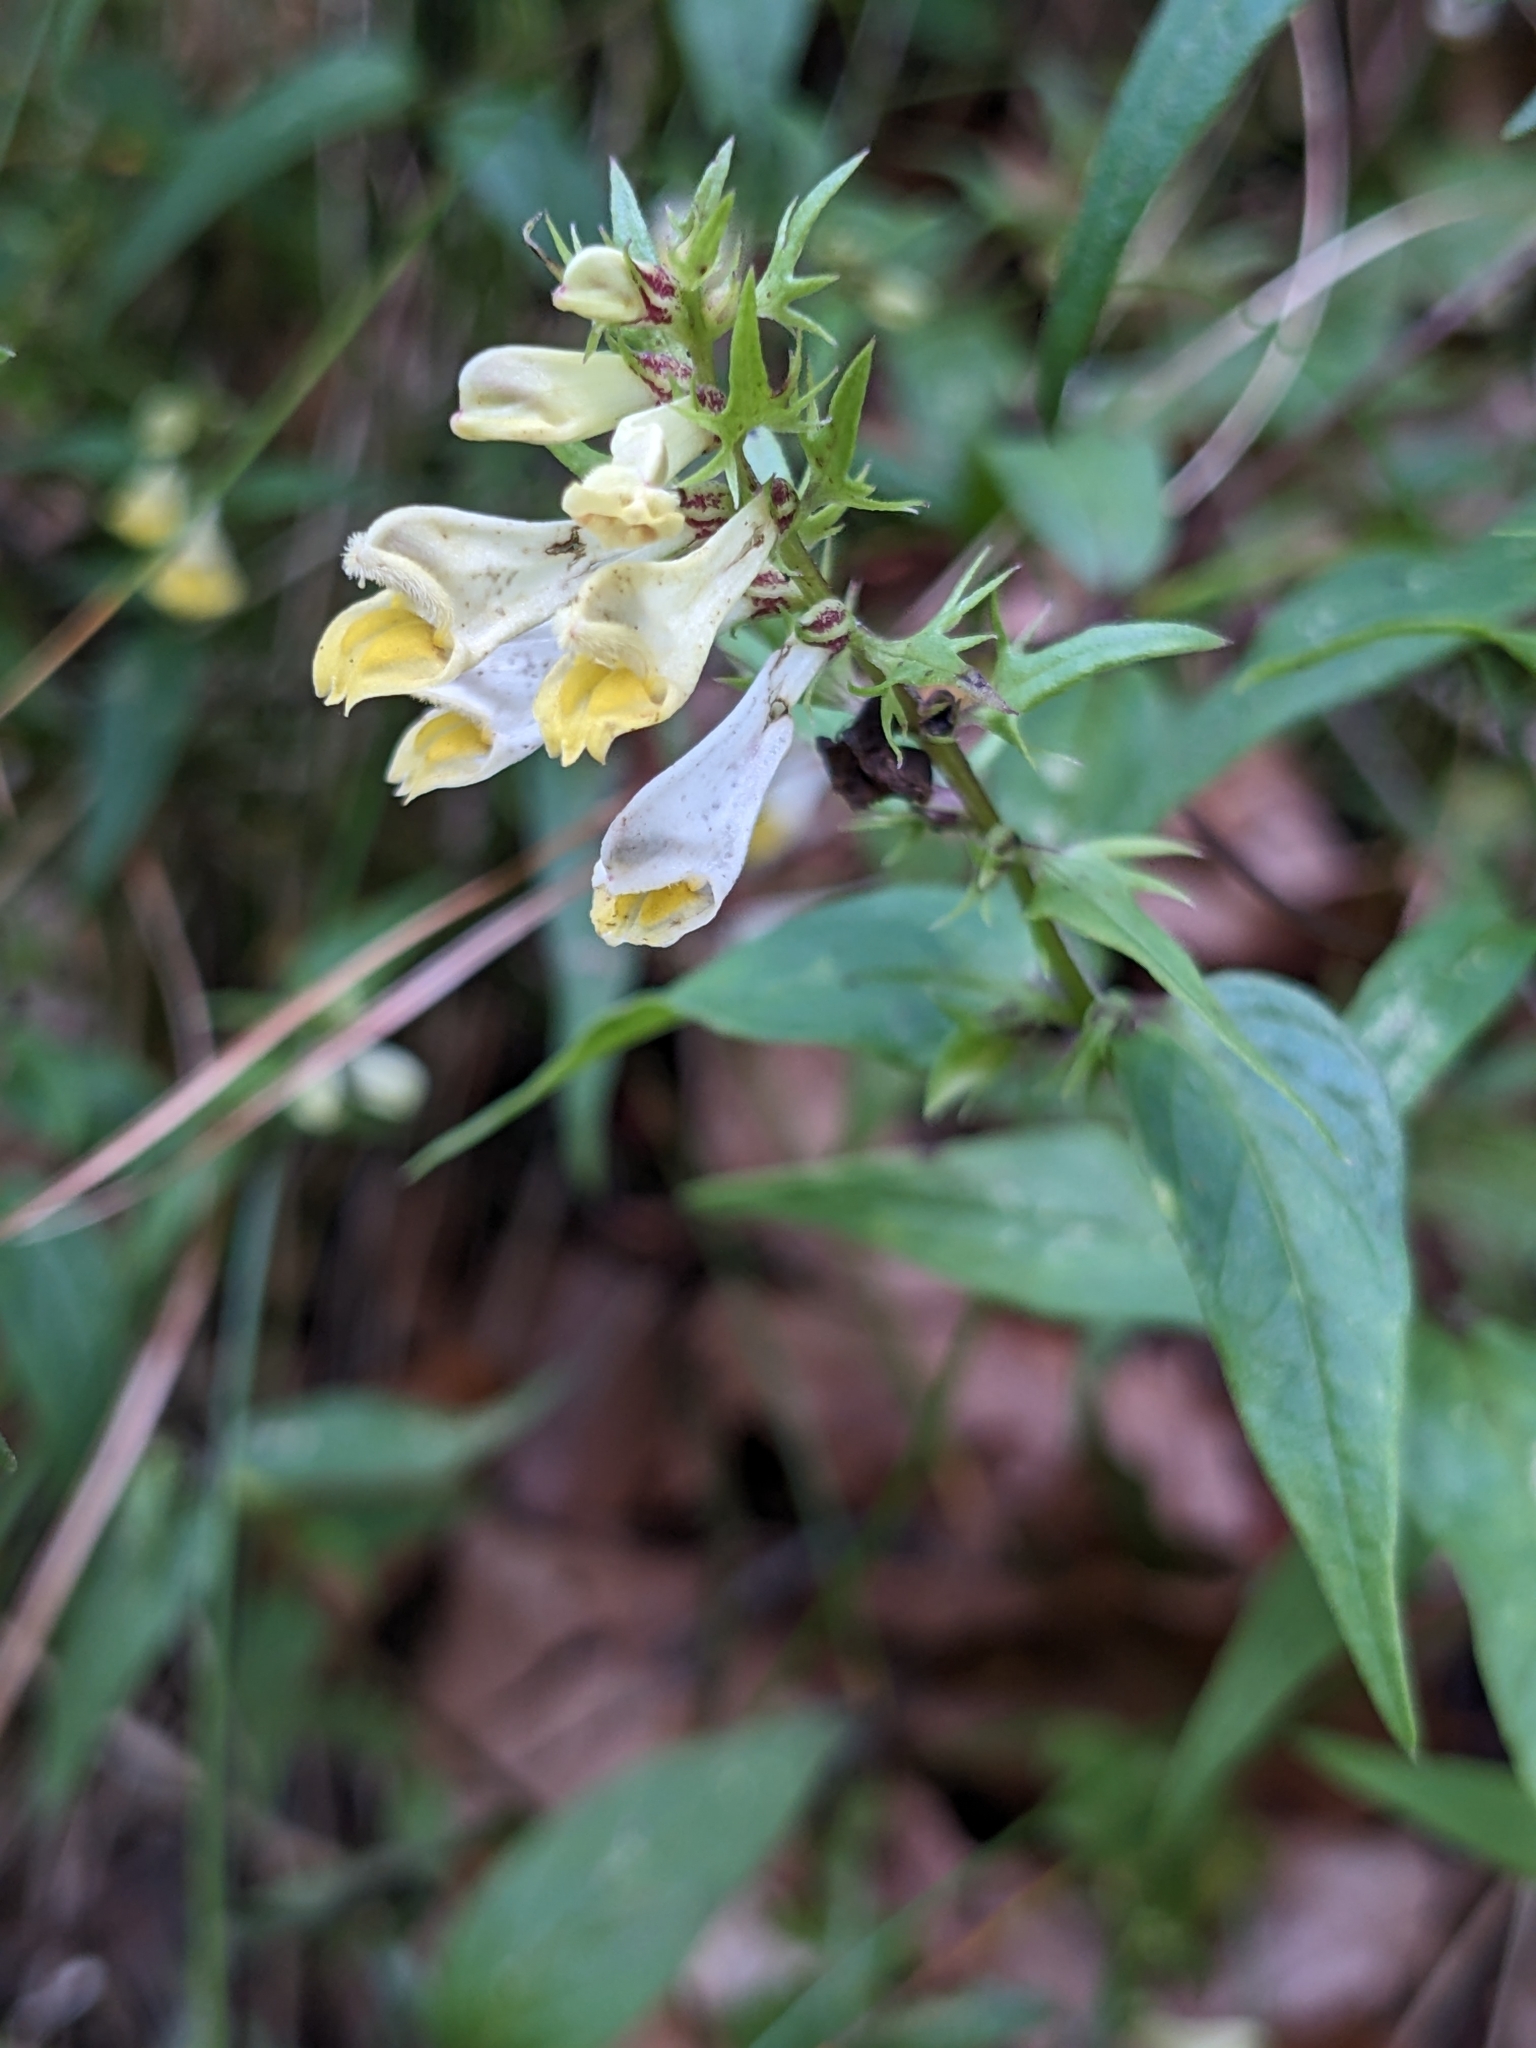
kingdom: Plantae
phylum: Tracheophyta
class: Magnoliopsida
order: Lamiales
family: Orobanchaceae
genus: Melampyrum
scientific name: Melampyrum pratense
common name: Common cow-wheat
